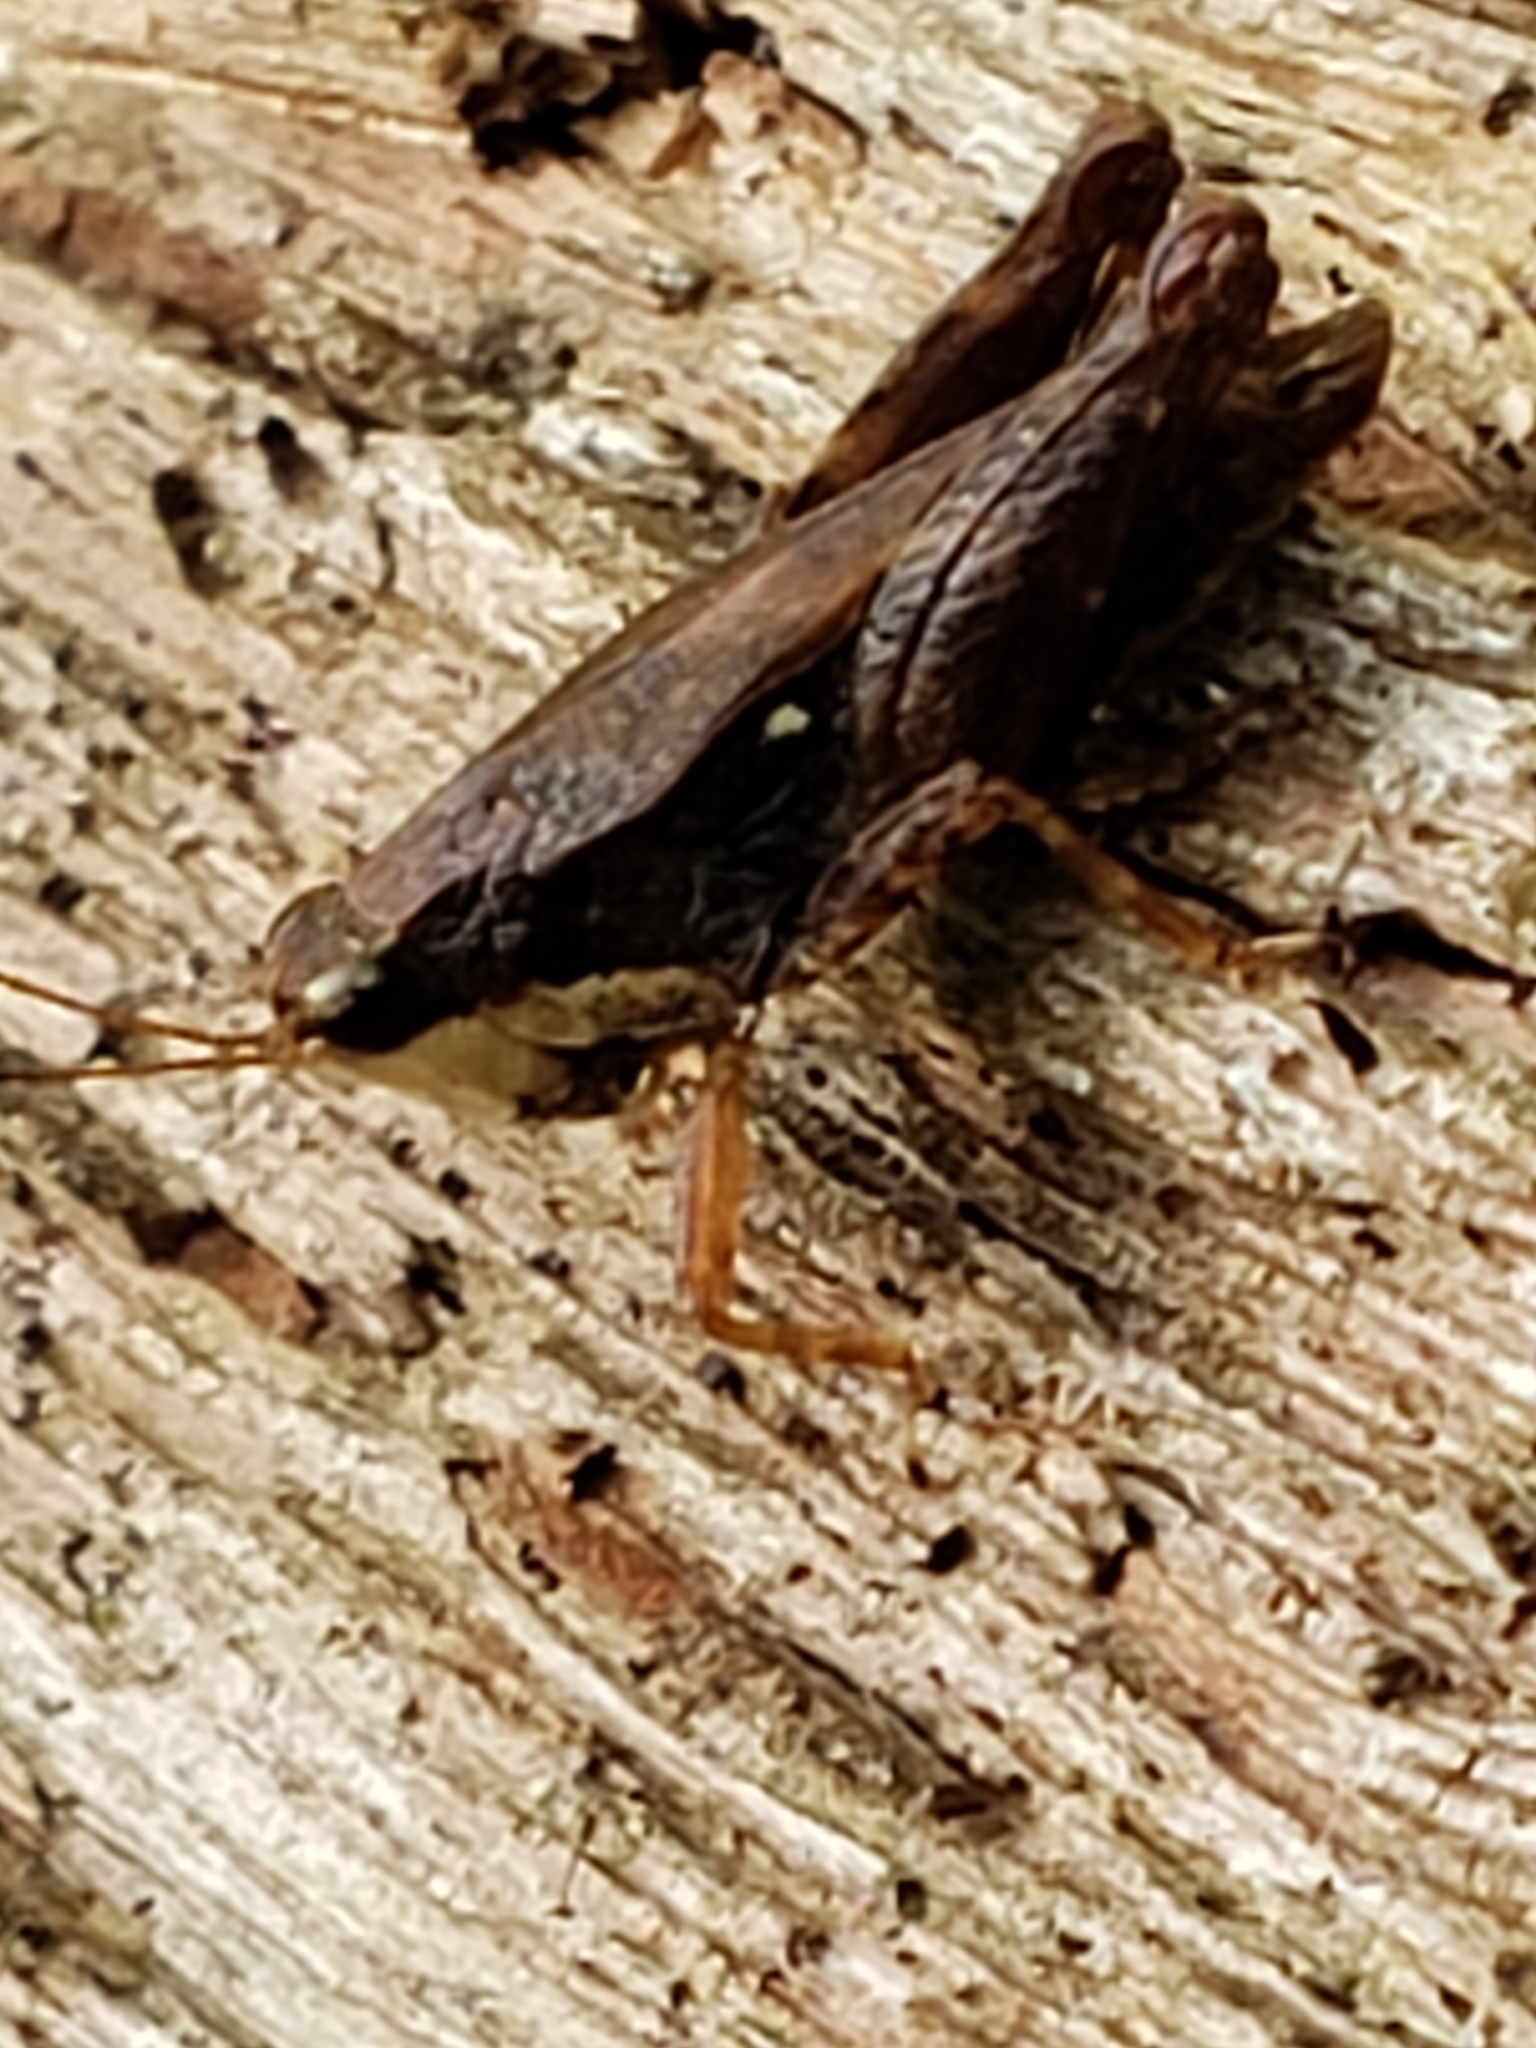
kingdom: Animalia
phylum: Arthropoda
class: Insecta
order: Orthoptera
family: Tetrigidae
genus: Tettigidea
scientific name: Tettigidea laterale
